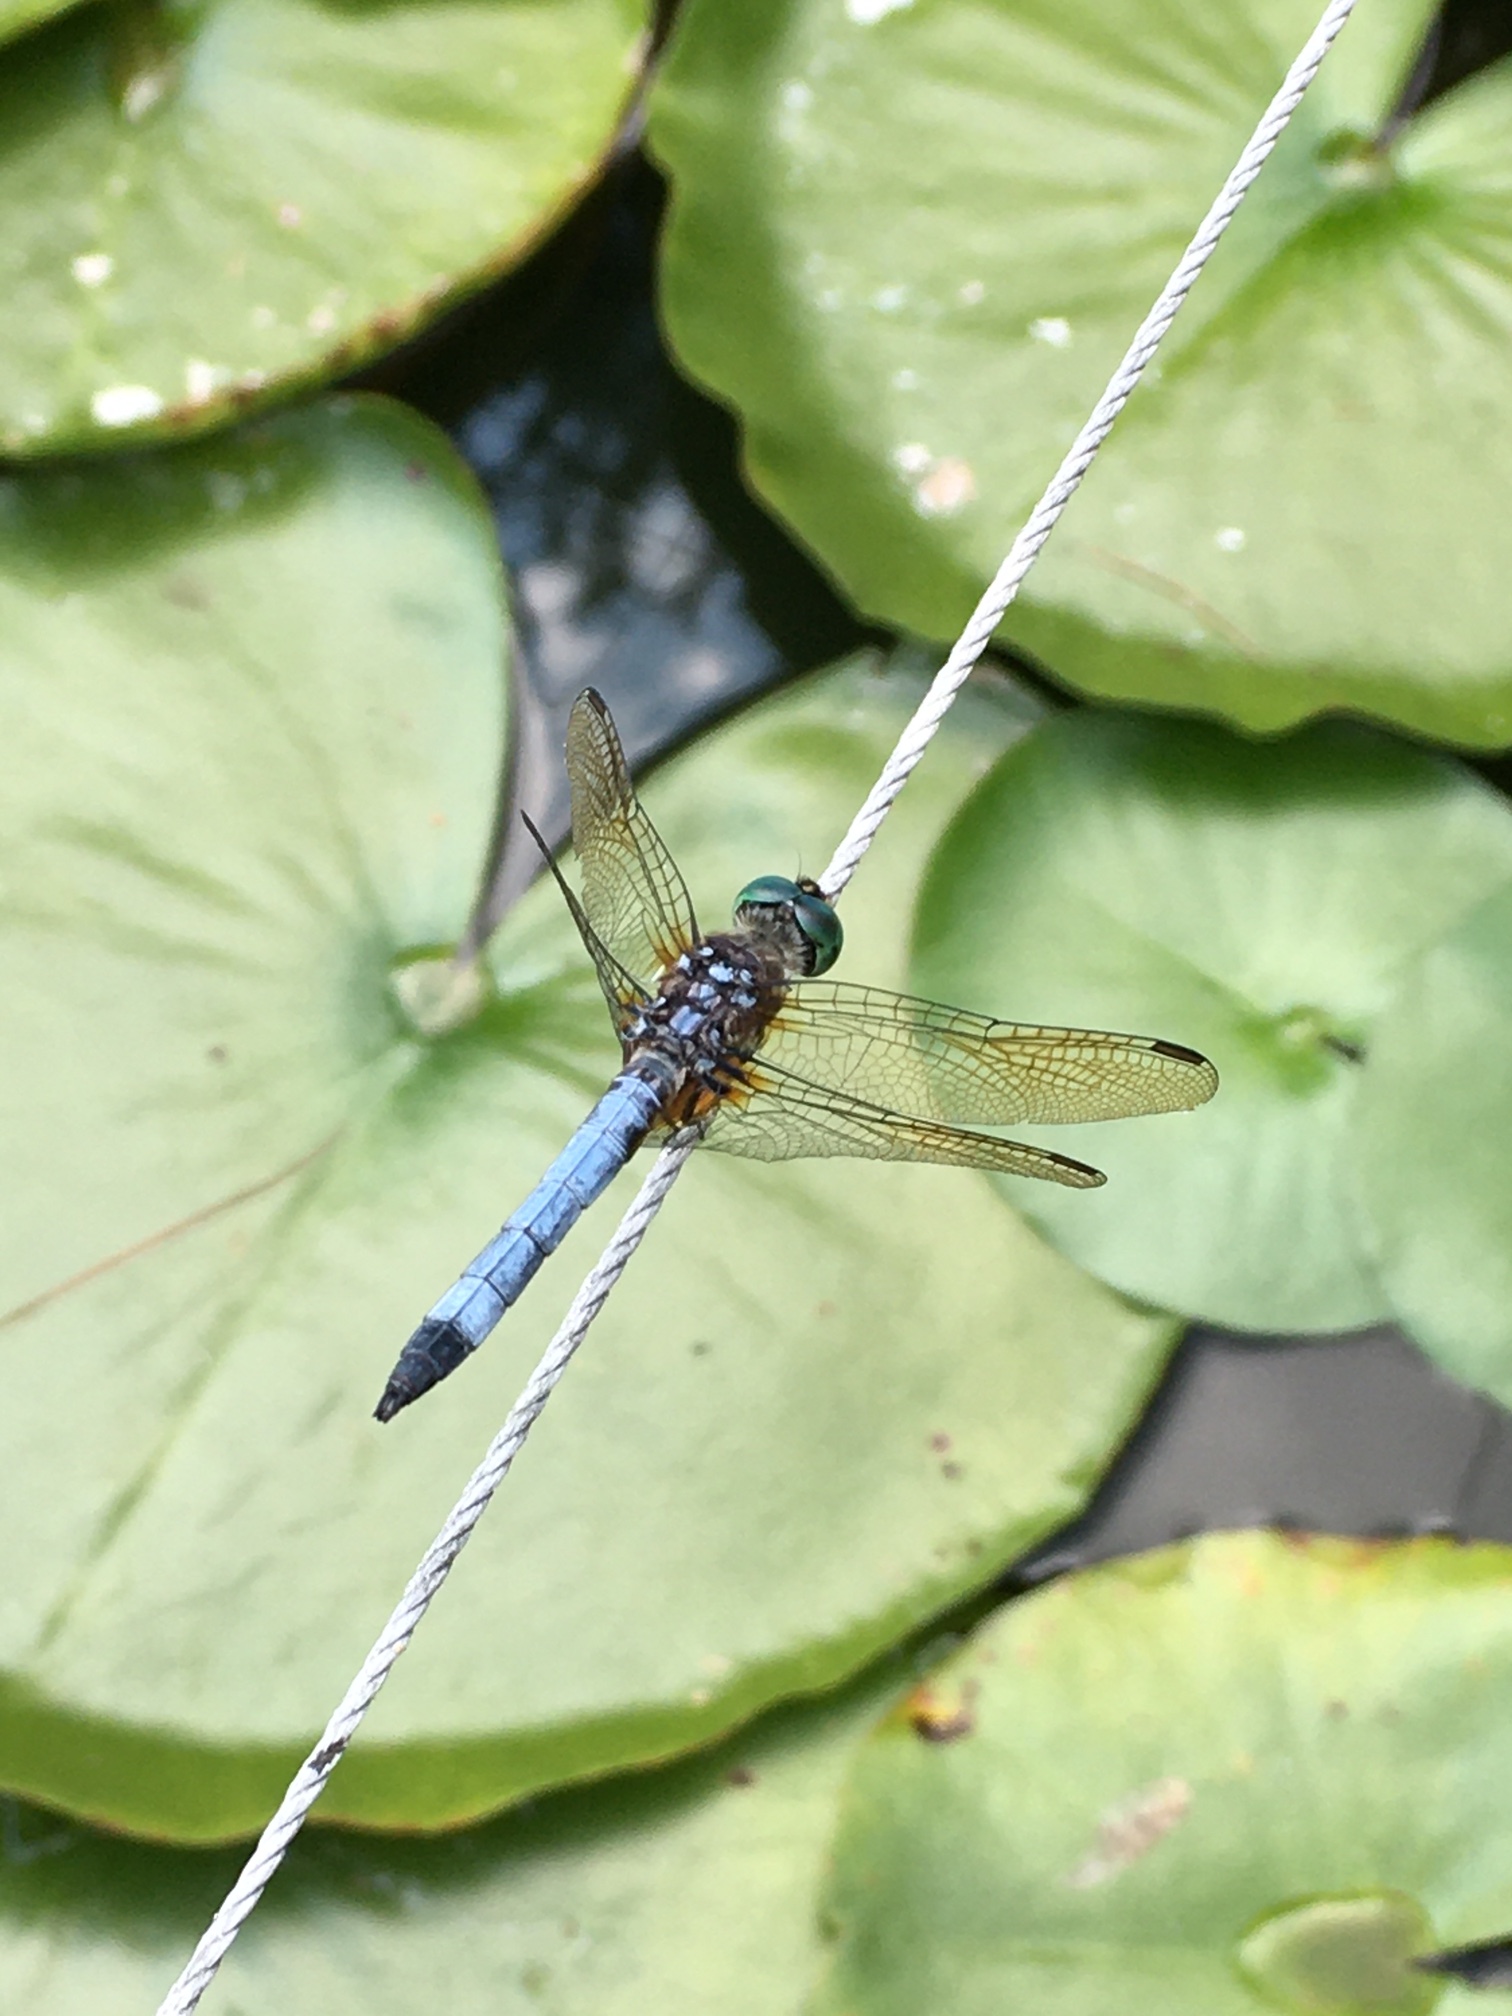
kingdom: Animalia
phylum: Arthropoda
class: Insecta
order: Odonata
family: Libellulidae
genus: Pachydiplax
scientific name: Pachydiplax longipennis
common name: Blue dasher
